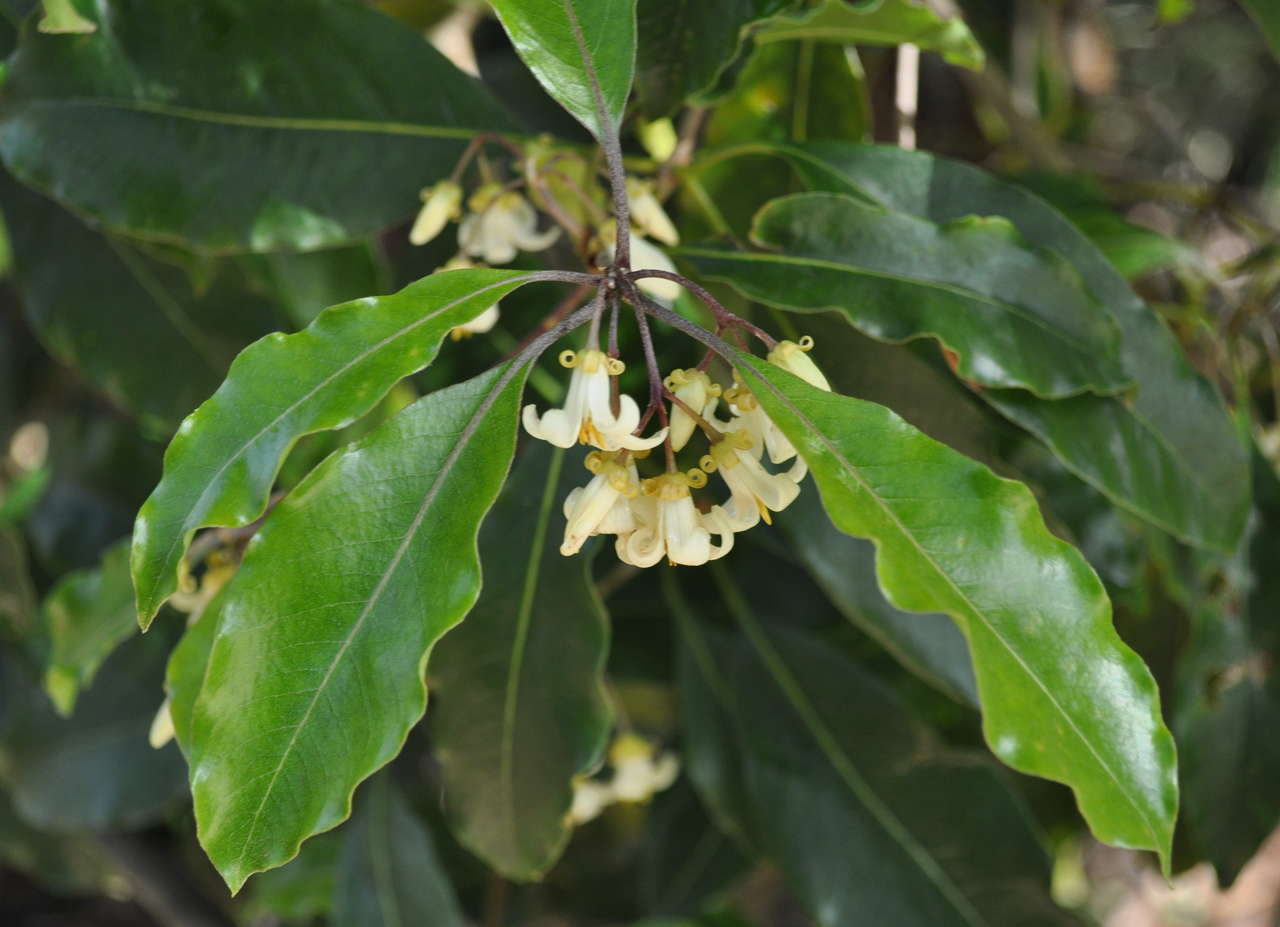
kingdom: Plantae
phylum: Tracheophyta
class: Magnoliopsida
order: Apiales
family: Pittosporaceae
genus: Pittosporum
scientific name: Pittosporum undulatum
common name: Australian cheesewood
